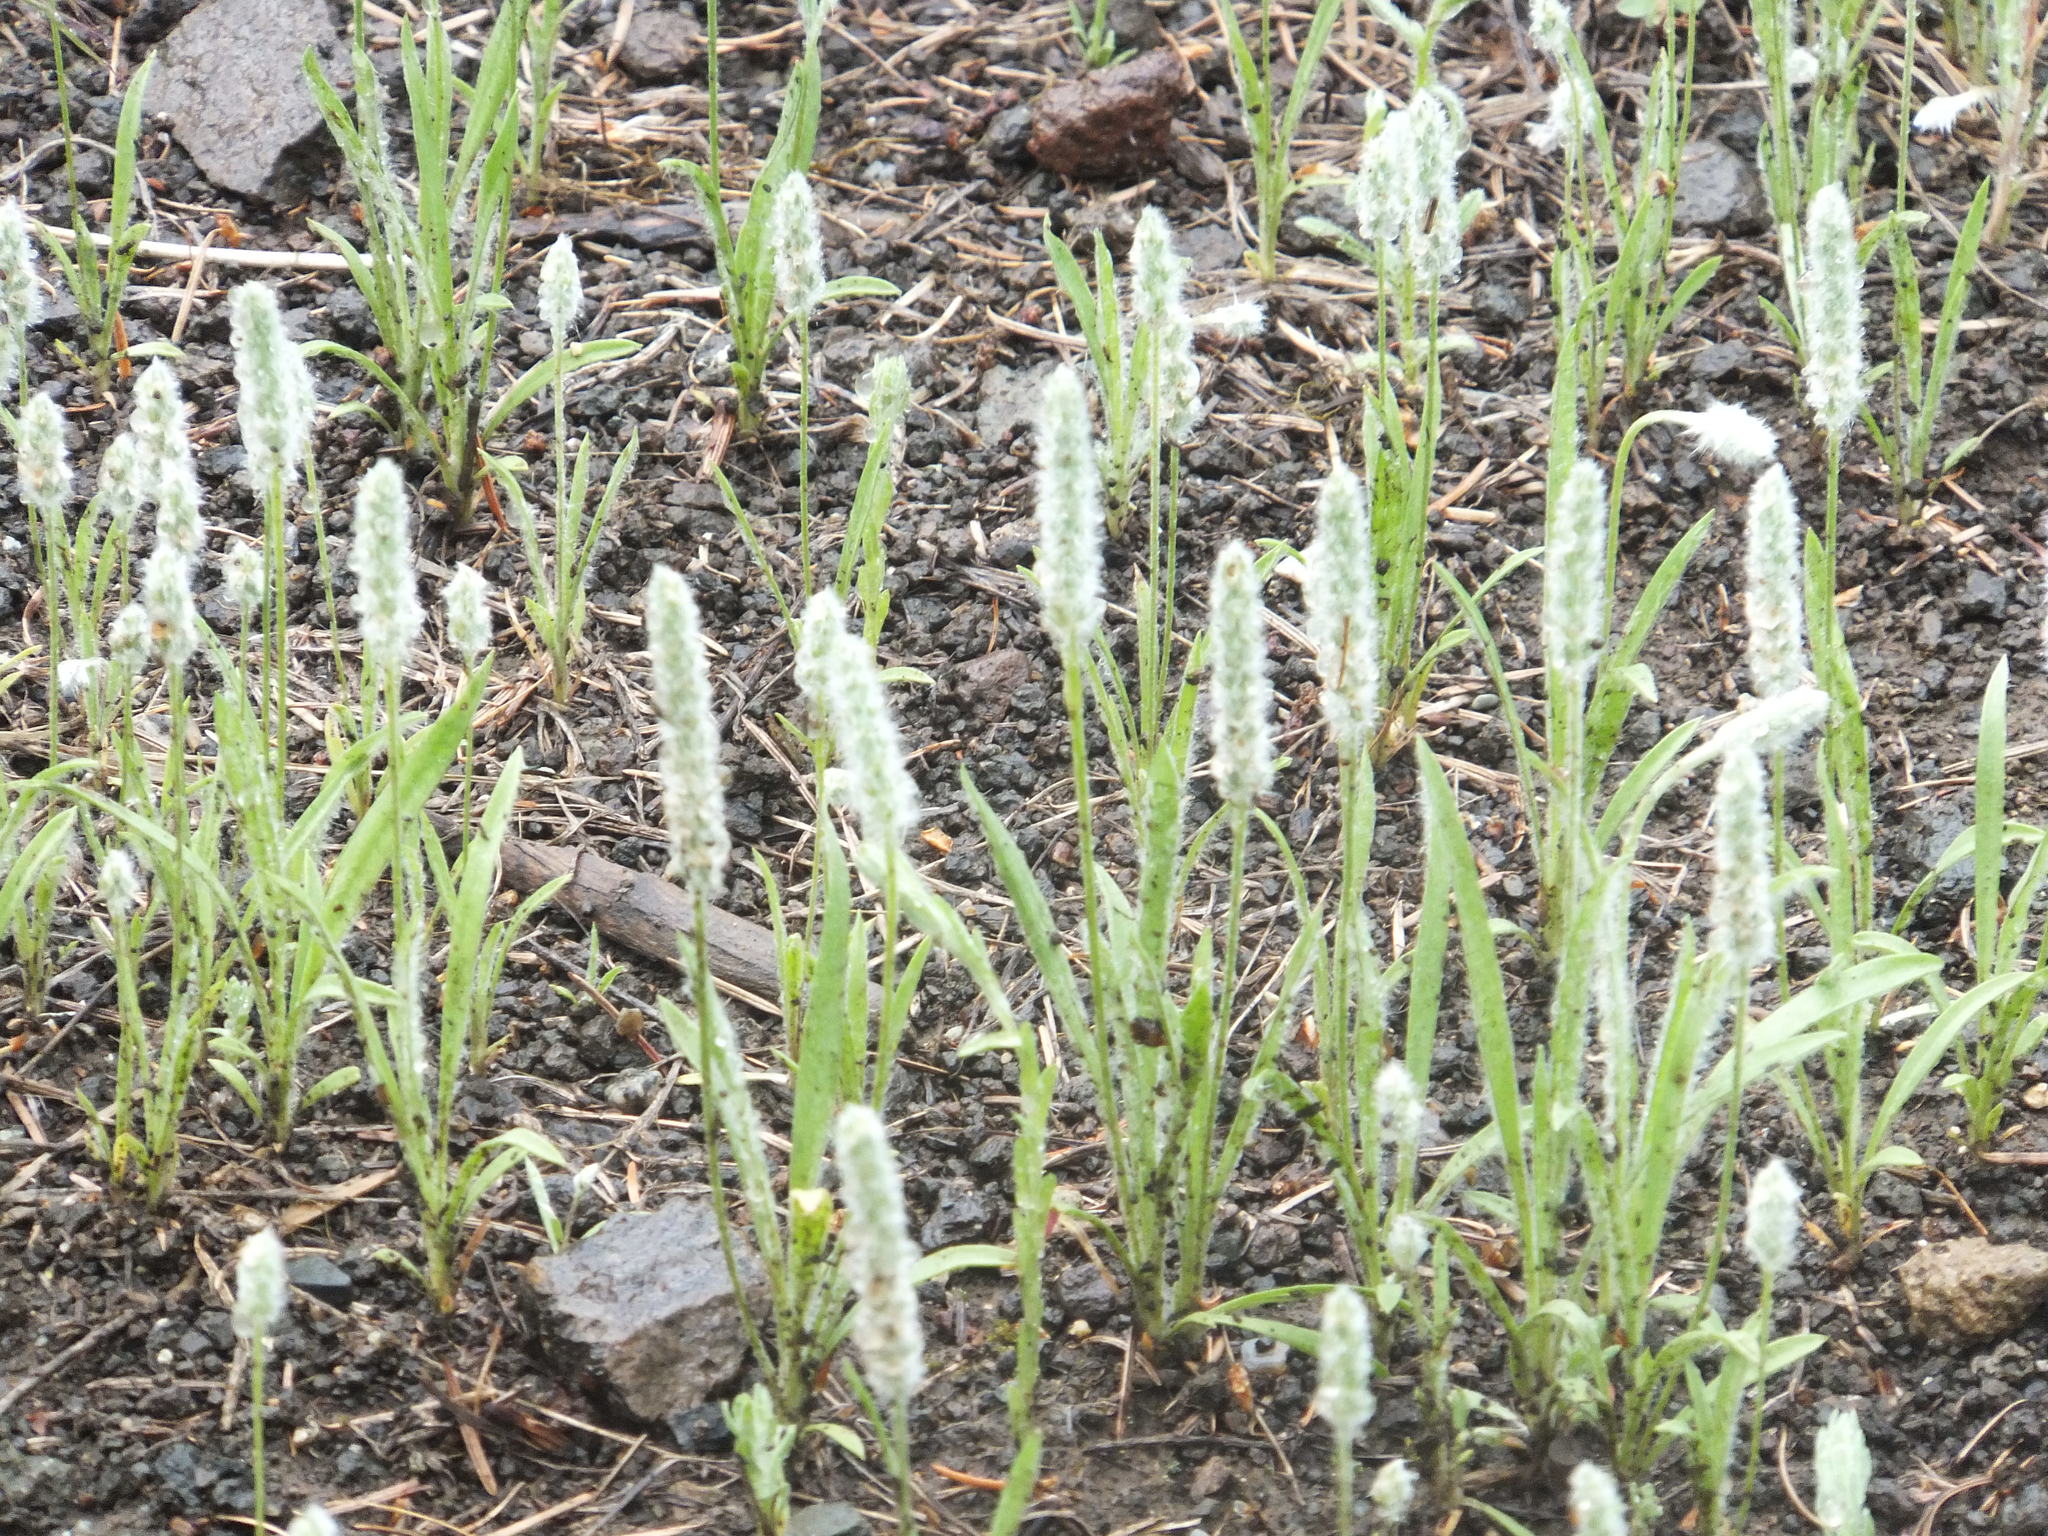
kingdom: Plantae
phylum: Tracheophyta
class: Magnoliopsida
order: Lamiales
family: Plantaginaceae
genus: Plantago
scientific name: Plantago patagonica
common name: Patagonia indian-wheat
